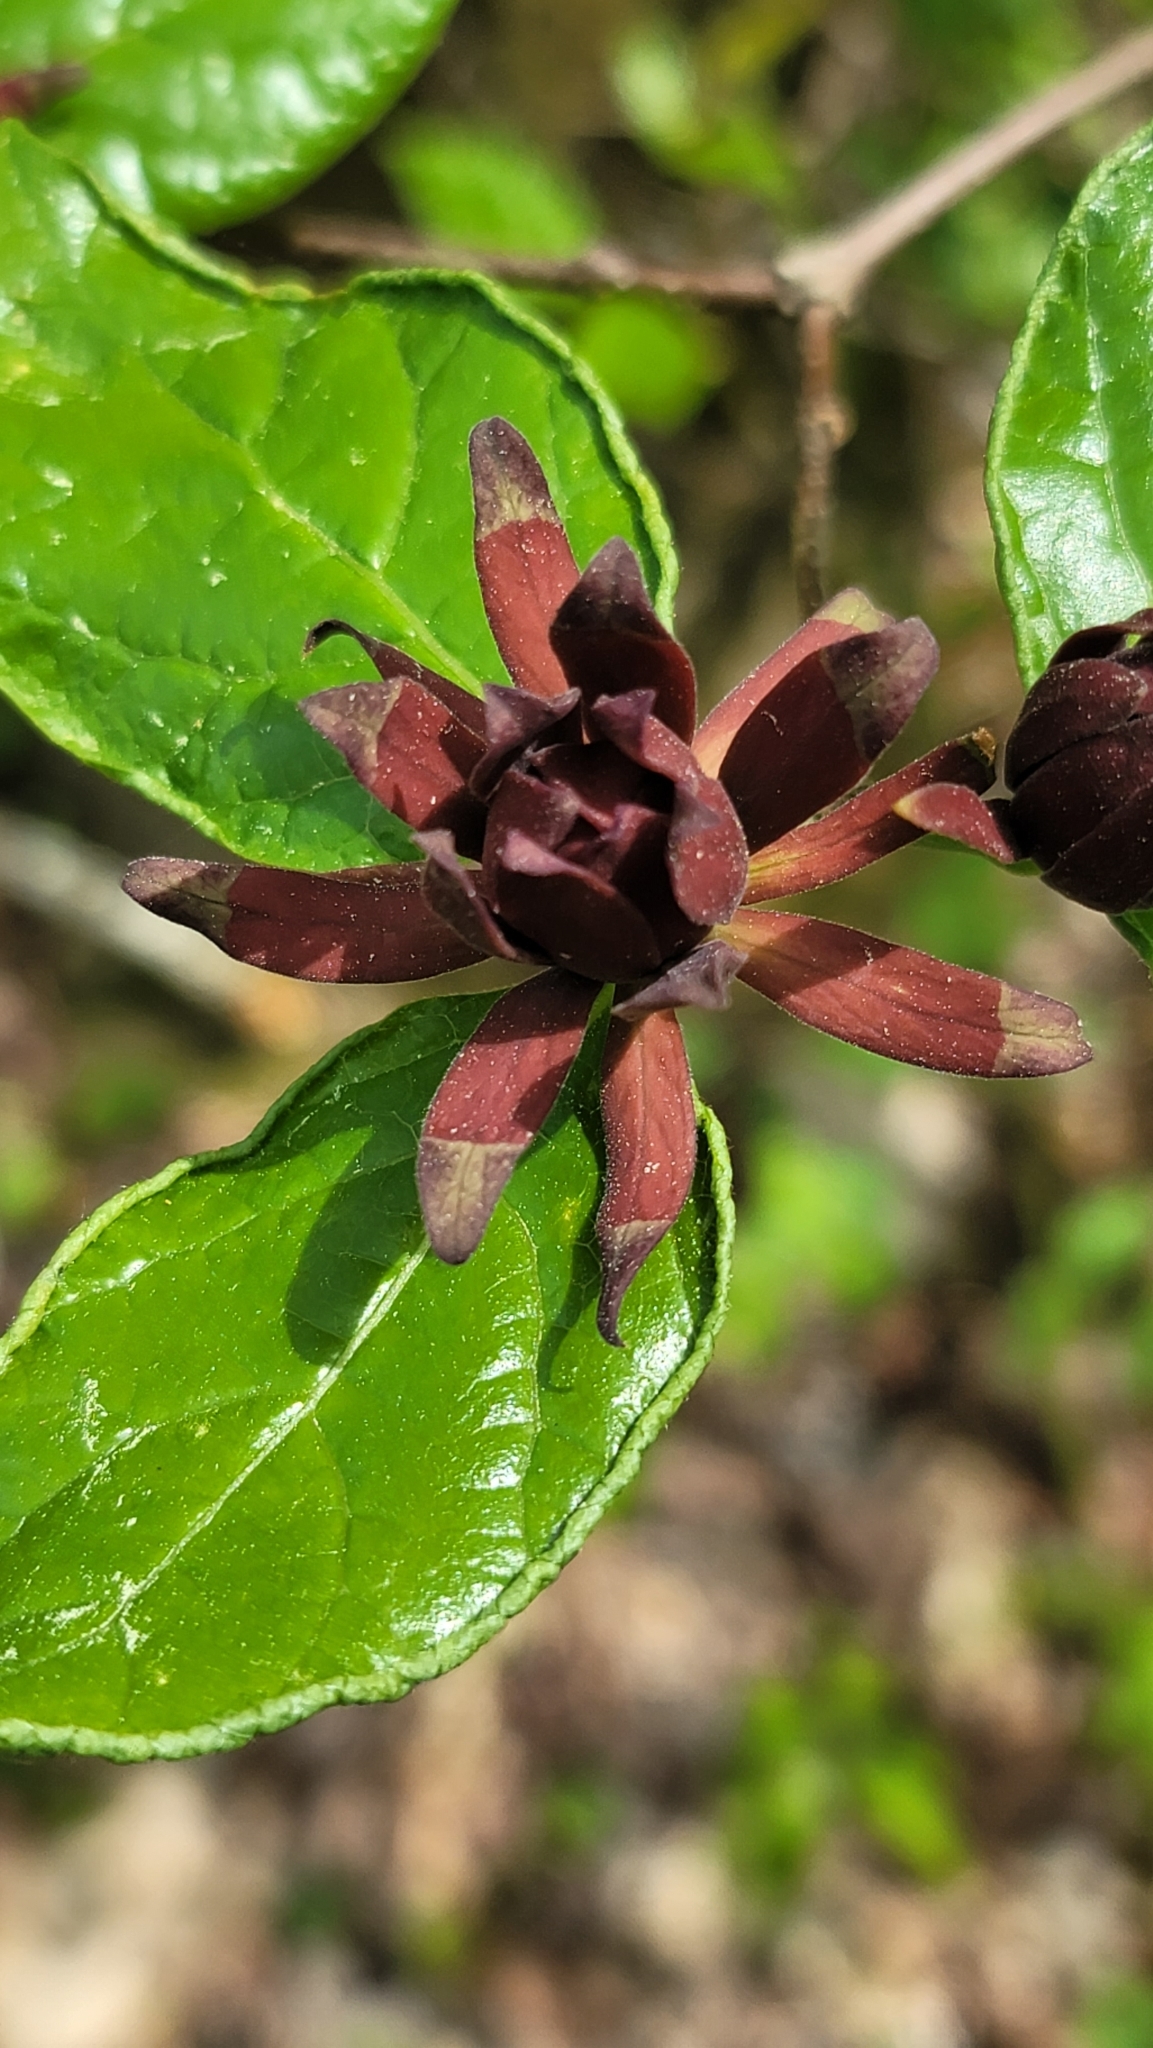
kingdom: Plantae
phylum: Tracheophyta
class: Magnoliopsida
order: Laurales
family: Calycanthaceae
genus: Calycanthus
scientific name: Calycanthus floridus
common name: Carolina-allspice
